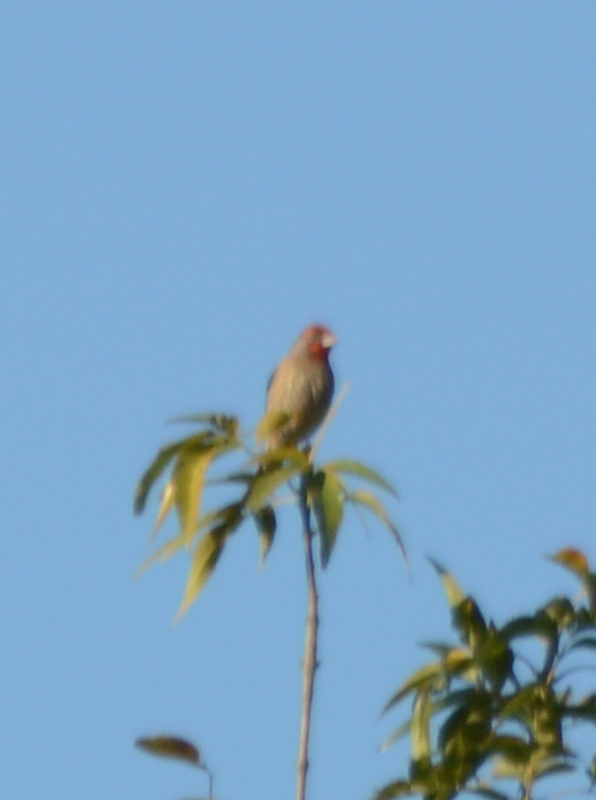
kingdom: Animalia
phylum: Chordata
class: Aves
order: Passeriformes
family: Fringillidae
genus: Haemorhous
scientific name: Haemorhous mexicanus
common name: House finch
